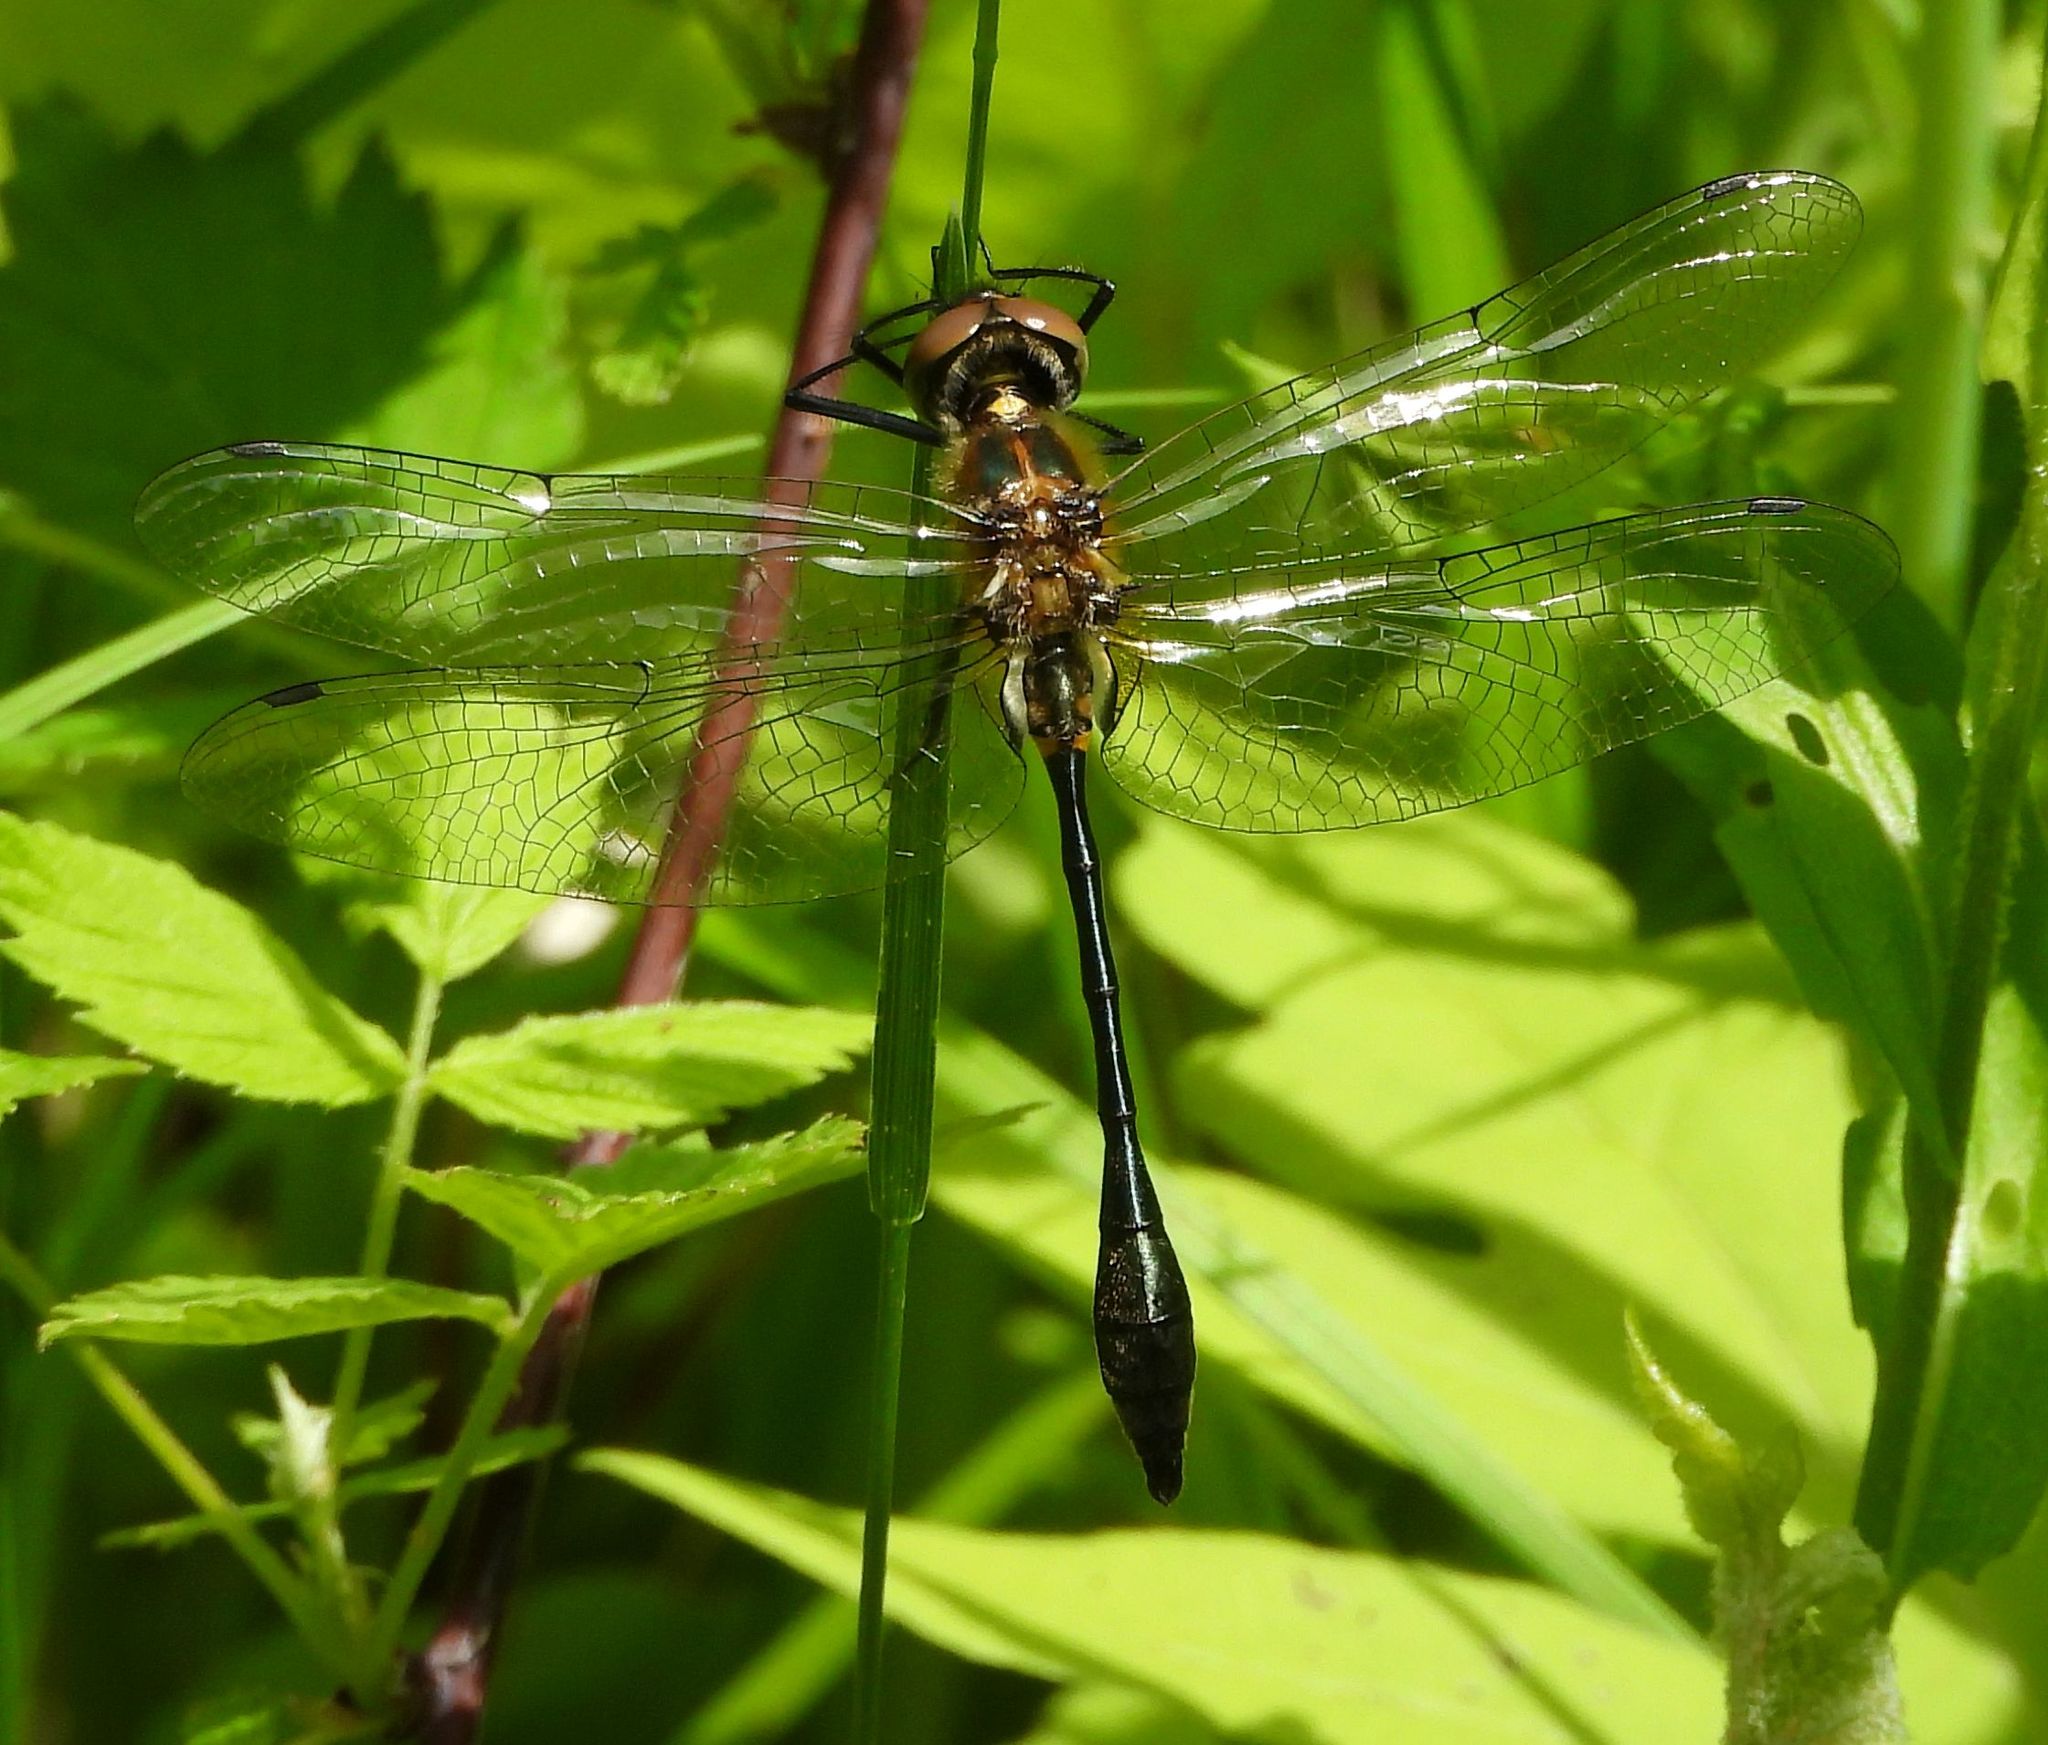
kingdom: Animalia
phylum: Arthropoda
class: Insecta
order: Odonata
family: Corduliidae
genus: Dorocordulia
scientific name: Dorocordulia libera
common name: Racket-tailed emerald
